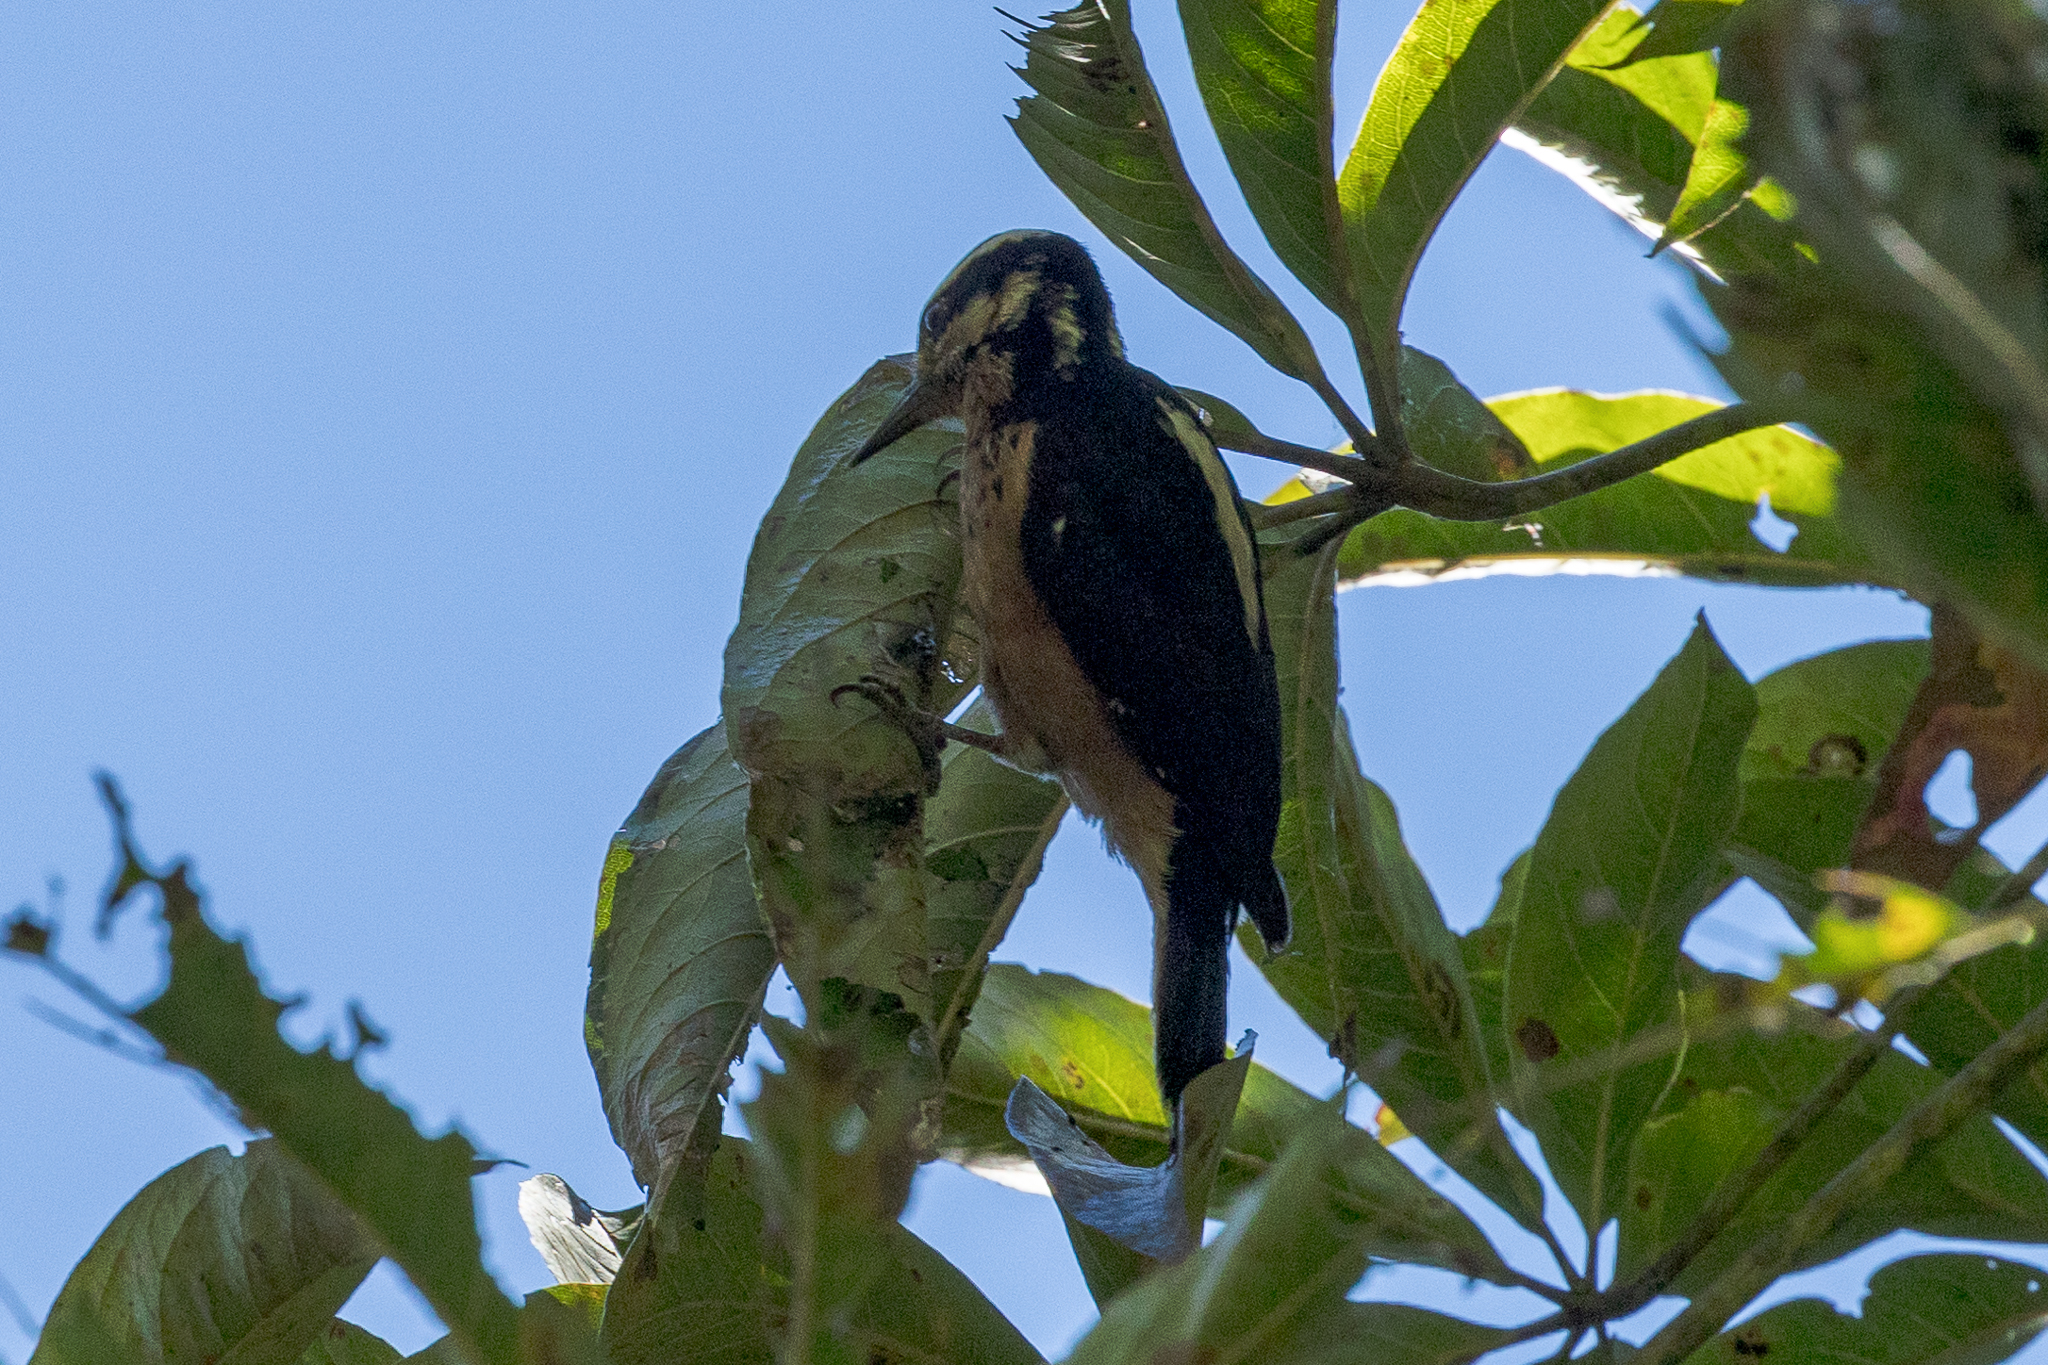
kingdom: Animalia
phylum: Chordata
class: Aves
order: Piciformes
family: Picidae
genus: Leuconotopicus
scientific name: Leuconotopicus villosus
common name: Hairy woodpecker
